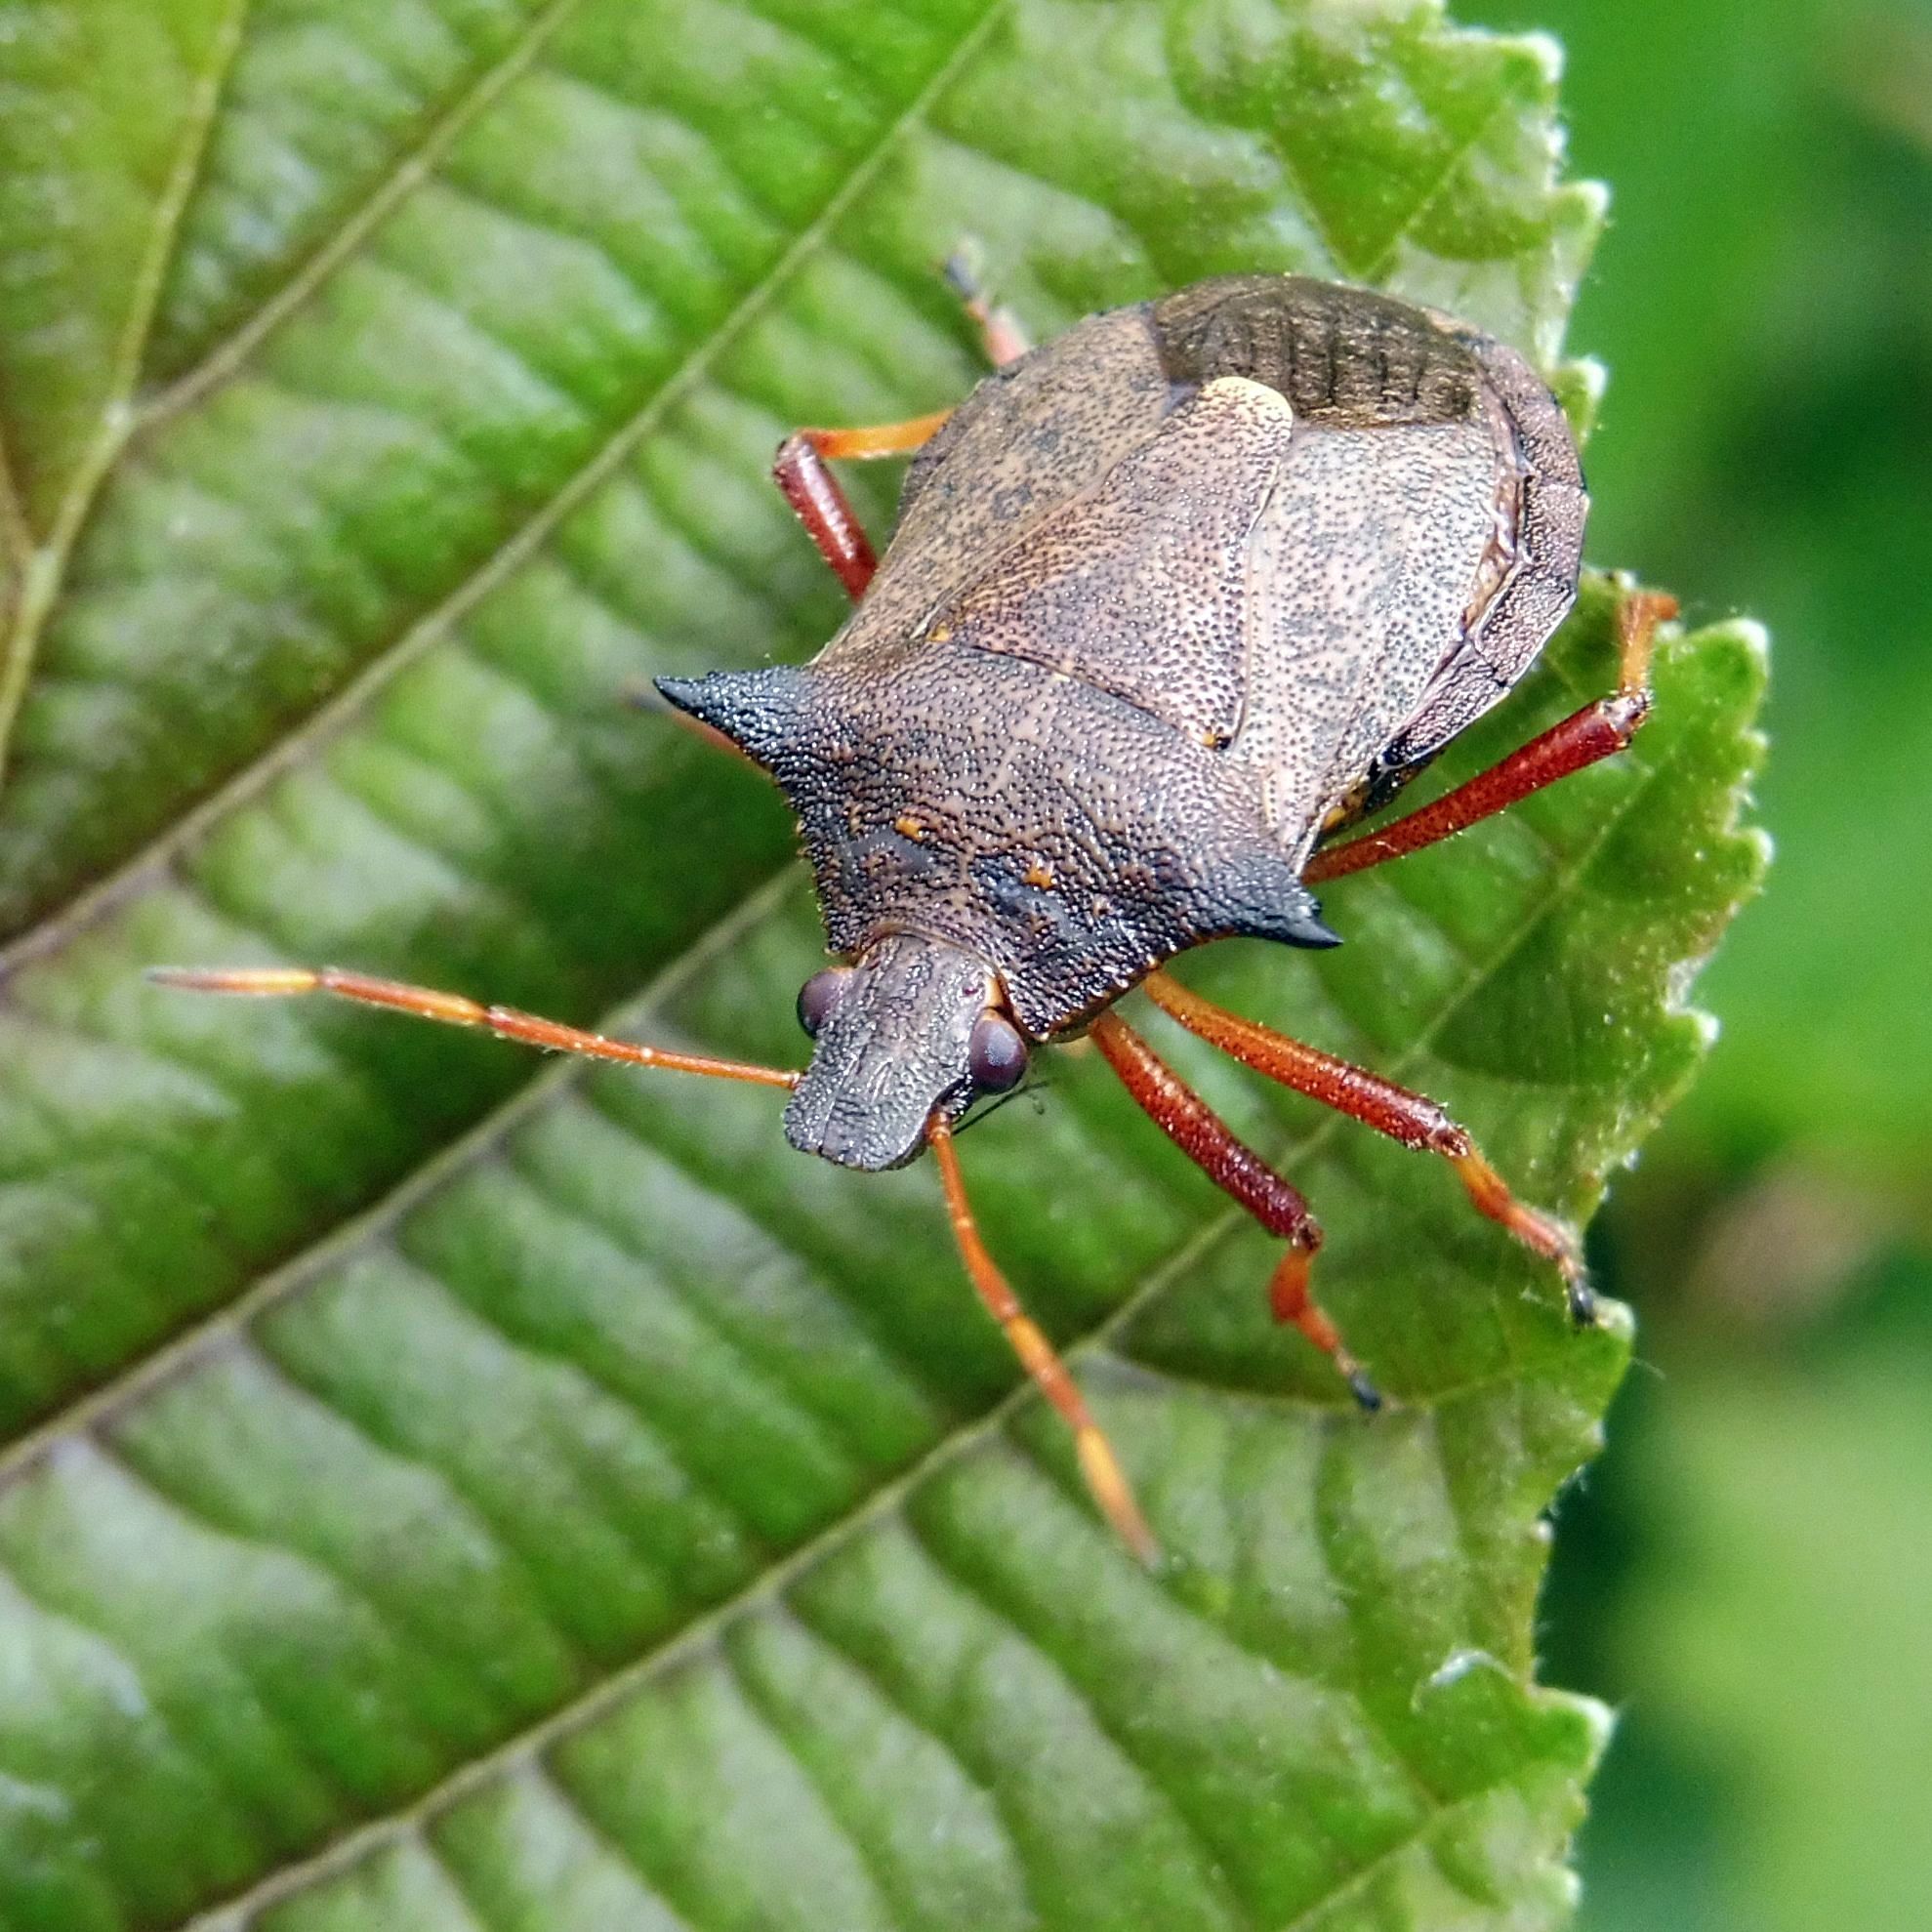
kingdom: Animalia
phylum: Arthropoda
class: Insecta
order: Hemiptera
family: Pentatomidae
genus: Picromerus
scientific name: Picromerus bidens
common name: Spiked shieldbug
